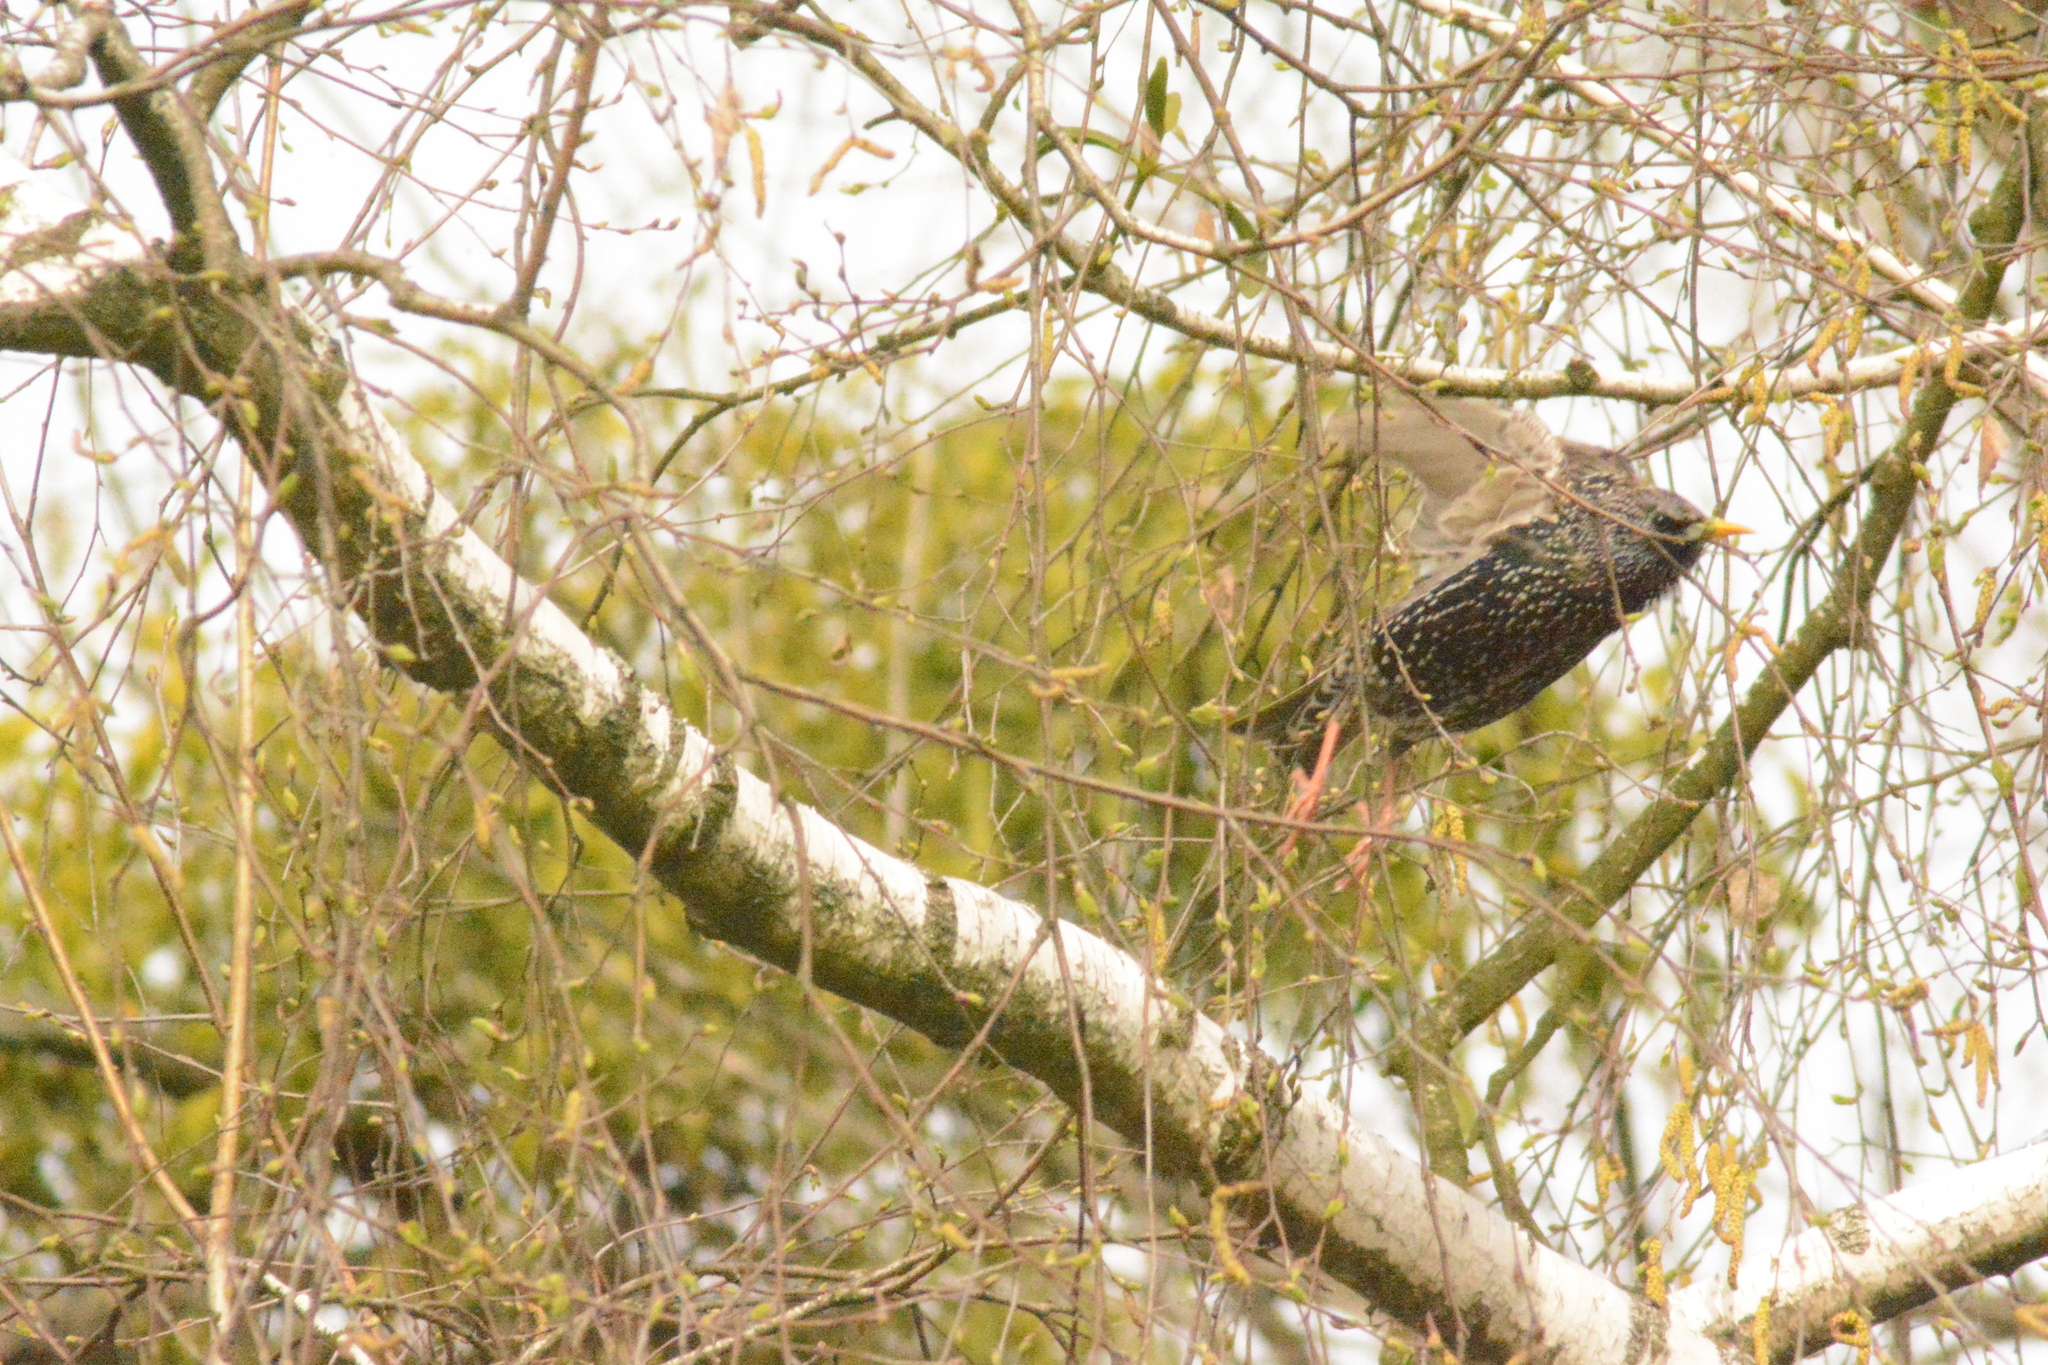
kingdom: Animalia
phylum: Chordata
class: Aves
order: Passeriformes
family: Sturnidae
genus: Sturnus
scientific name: Sturnus vulgaris
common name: Common starling
